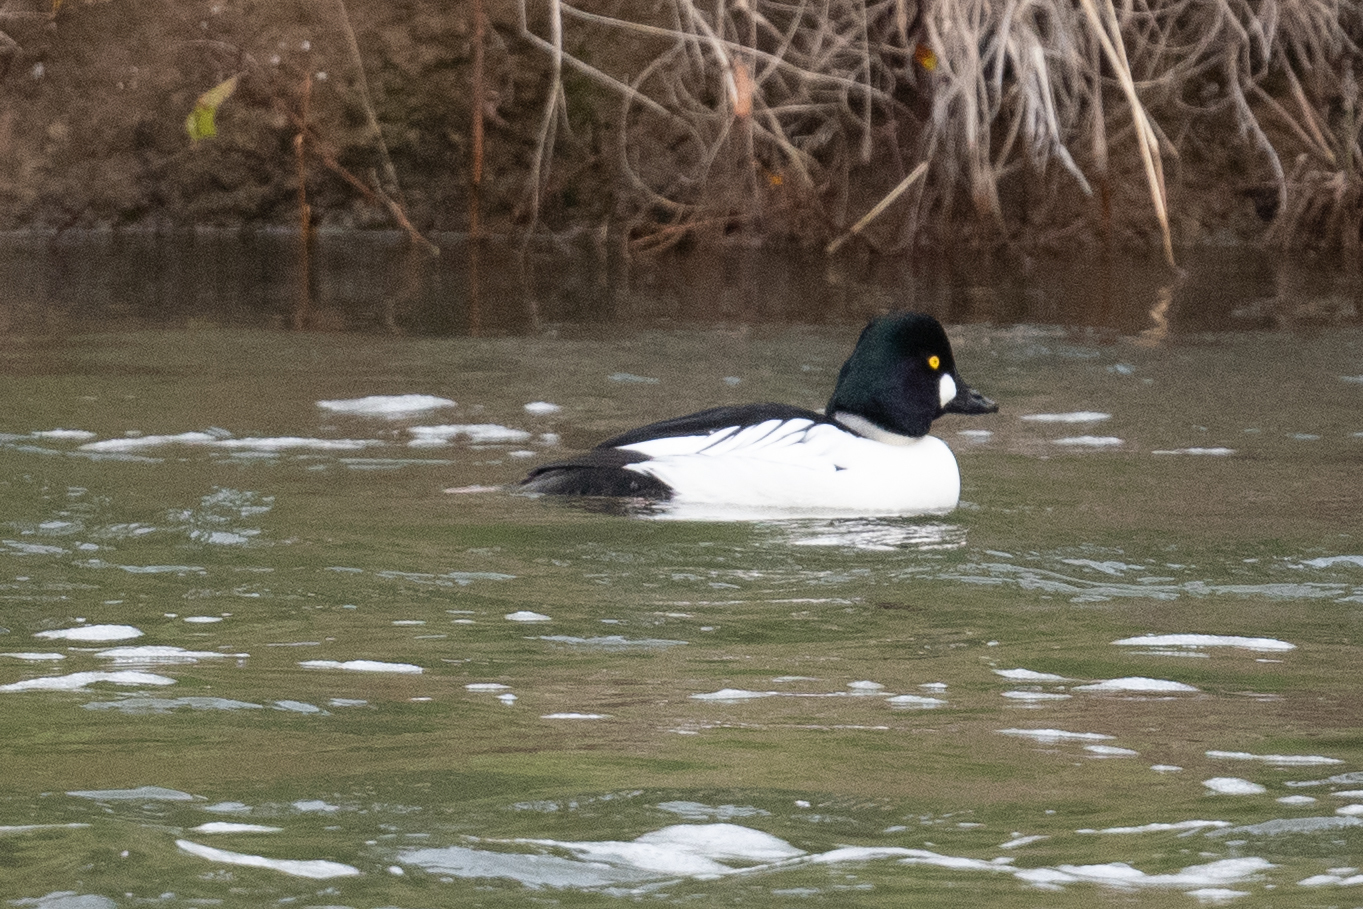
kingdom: Animalia
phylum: Chordata
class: Aves
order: Anseriformes
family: Anatidae
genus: Bucephala
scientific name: Bucephala clangula
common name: Common goldeneye
